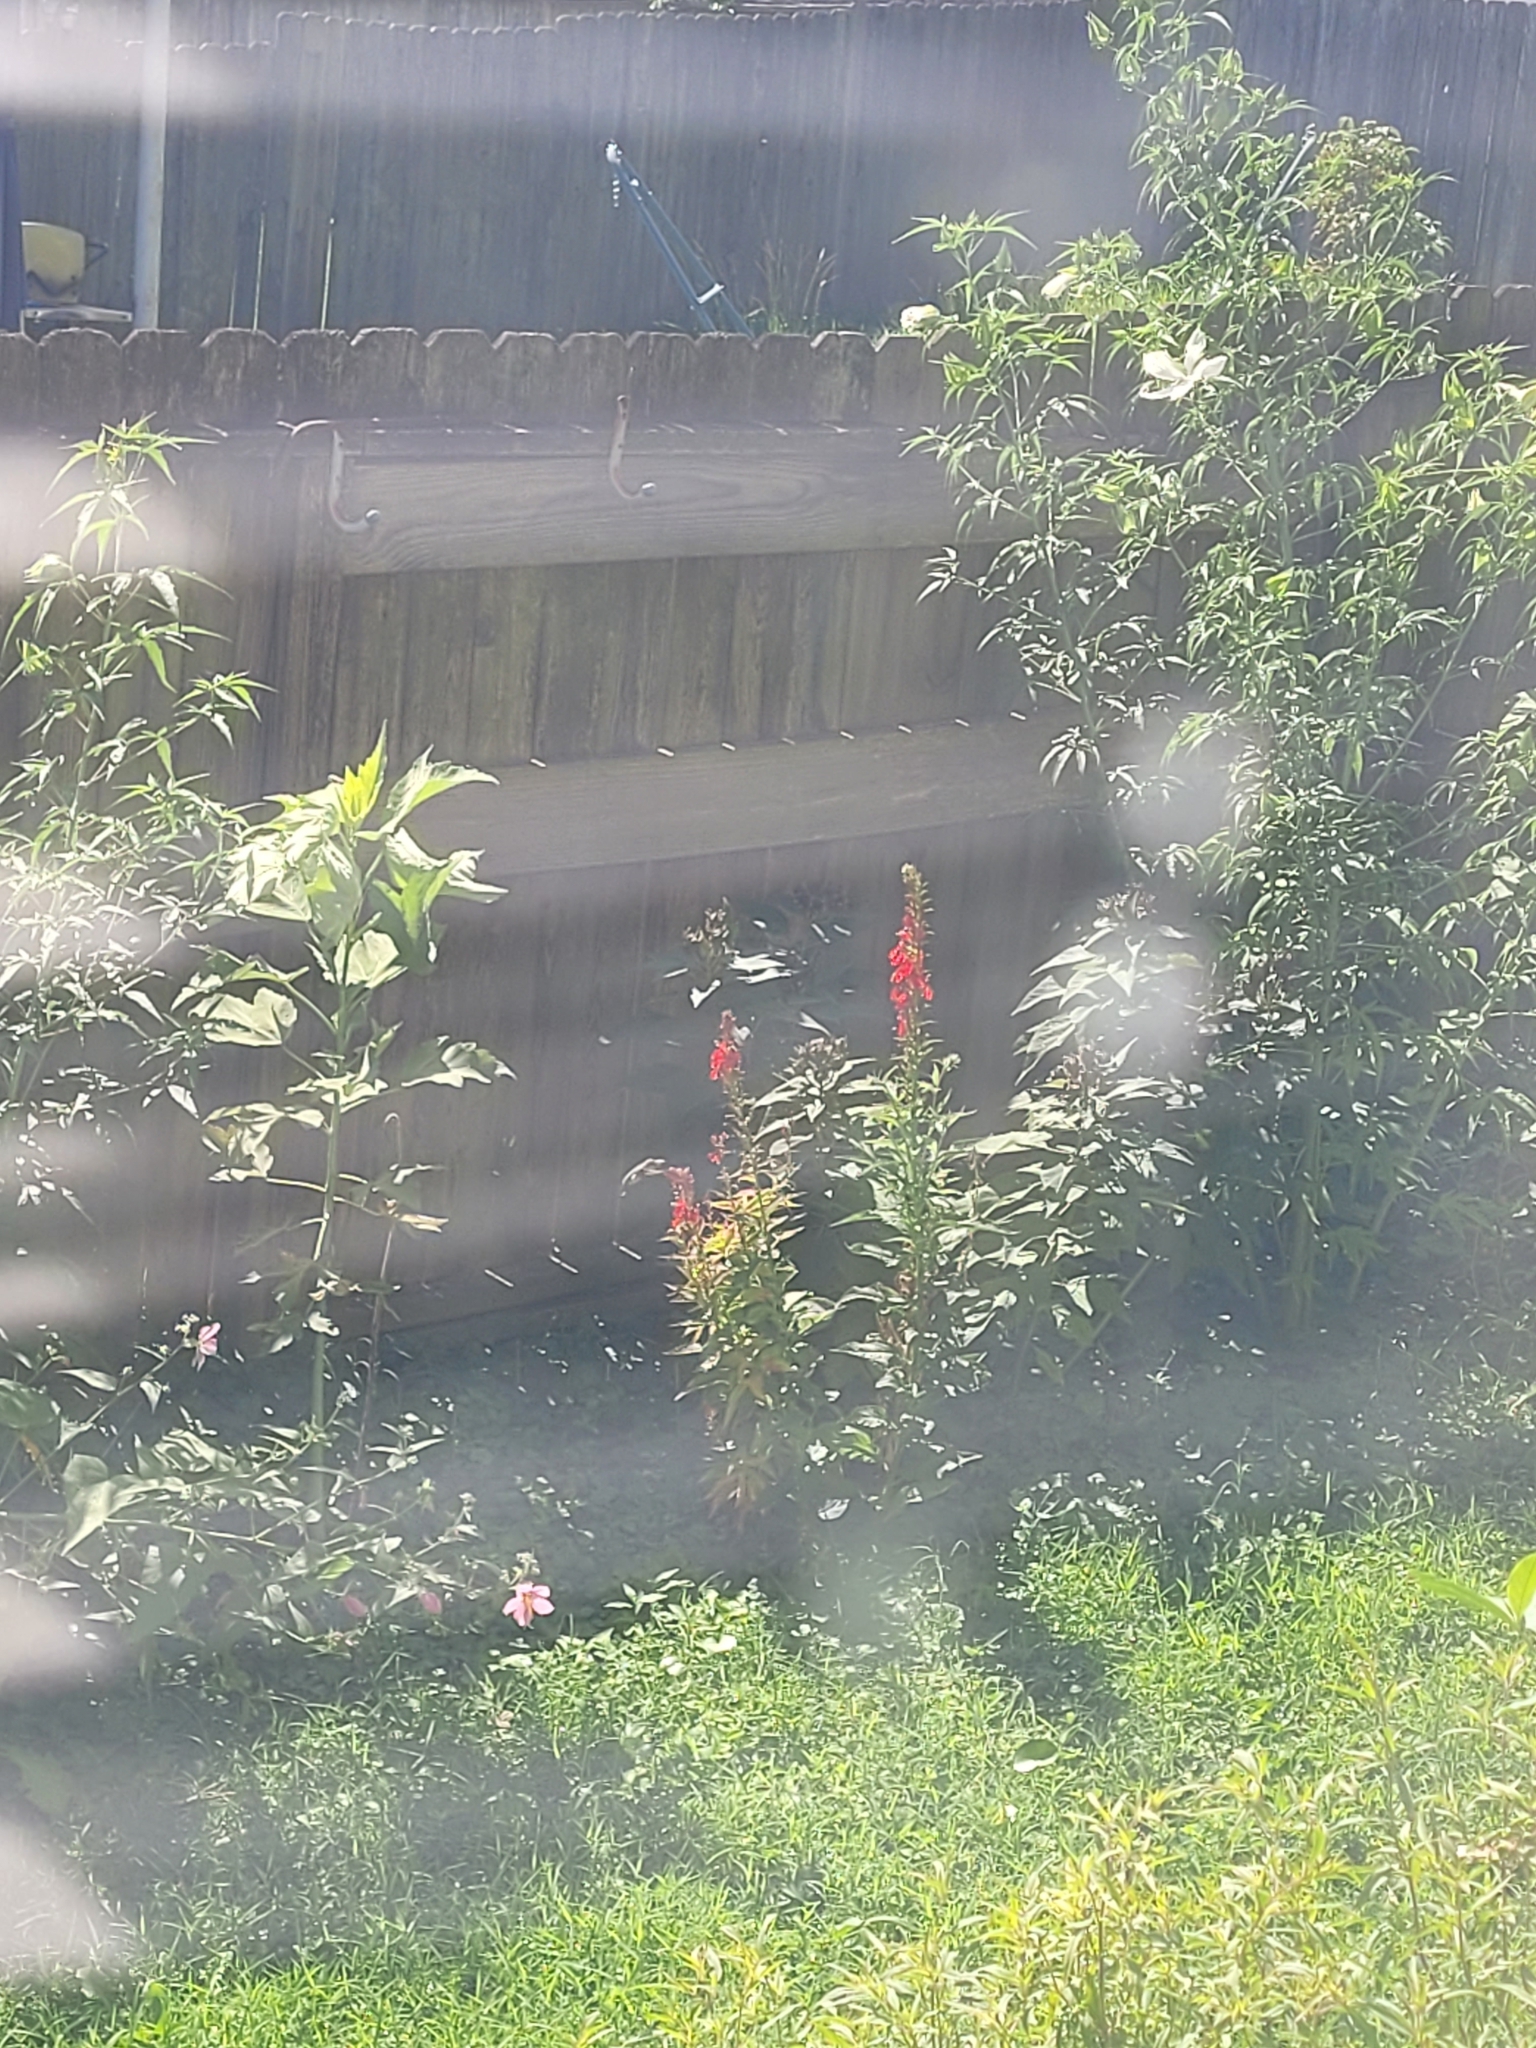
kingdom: Animalia
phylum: Chordata
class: Aves
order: Apodiformes
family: Trochilidae
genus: Archilochus
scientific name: Archilochus colubris
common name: Ruby-throated hummingbird
